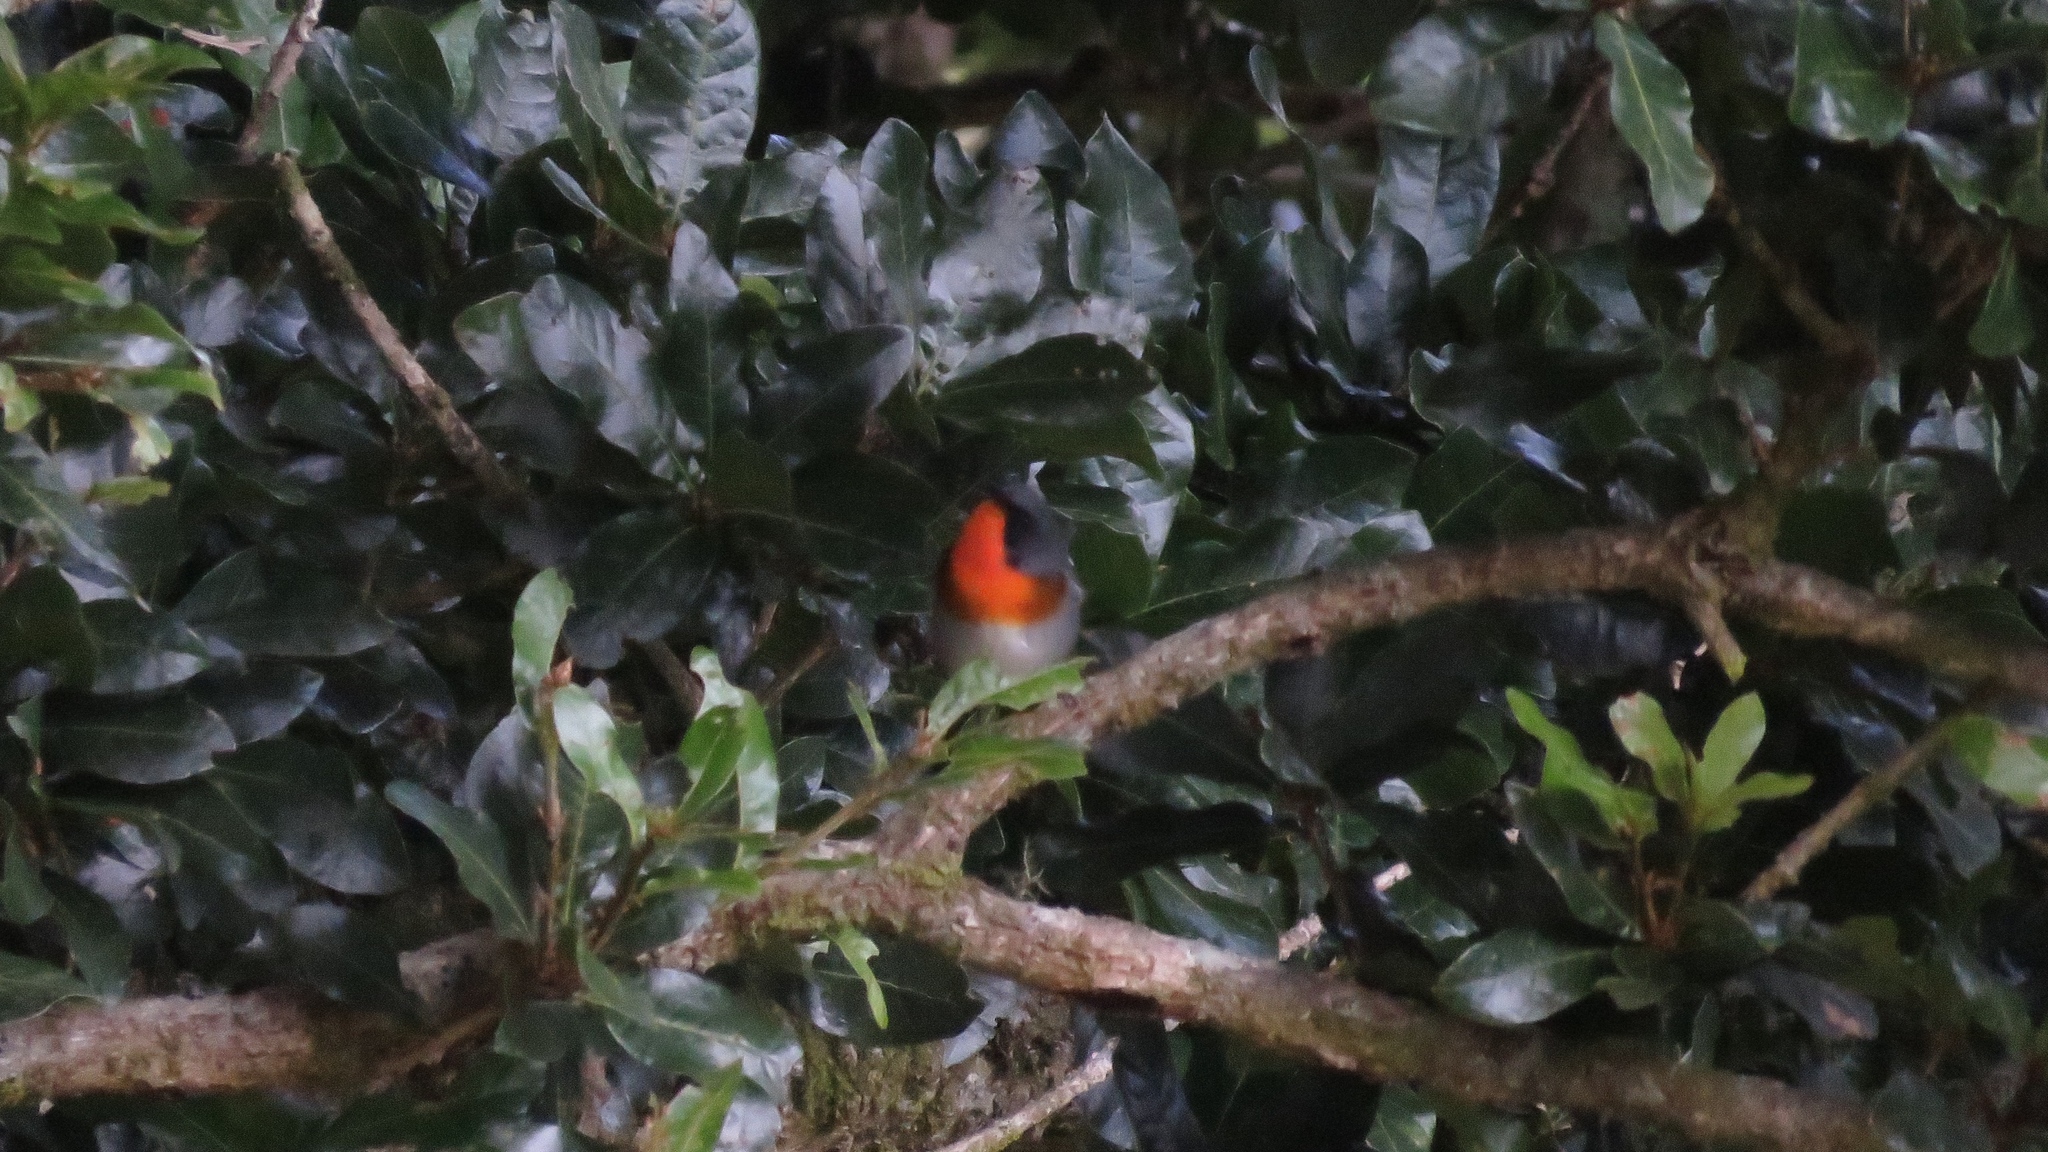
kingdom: Animalia
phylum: Chordata
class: Aves
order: Passeriformes
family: Parulidae
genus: Oreothlypis
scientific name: Oreothlypis gutturalis
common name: Flame-throated warbler
